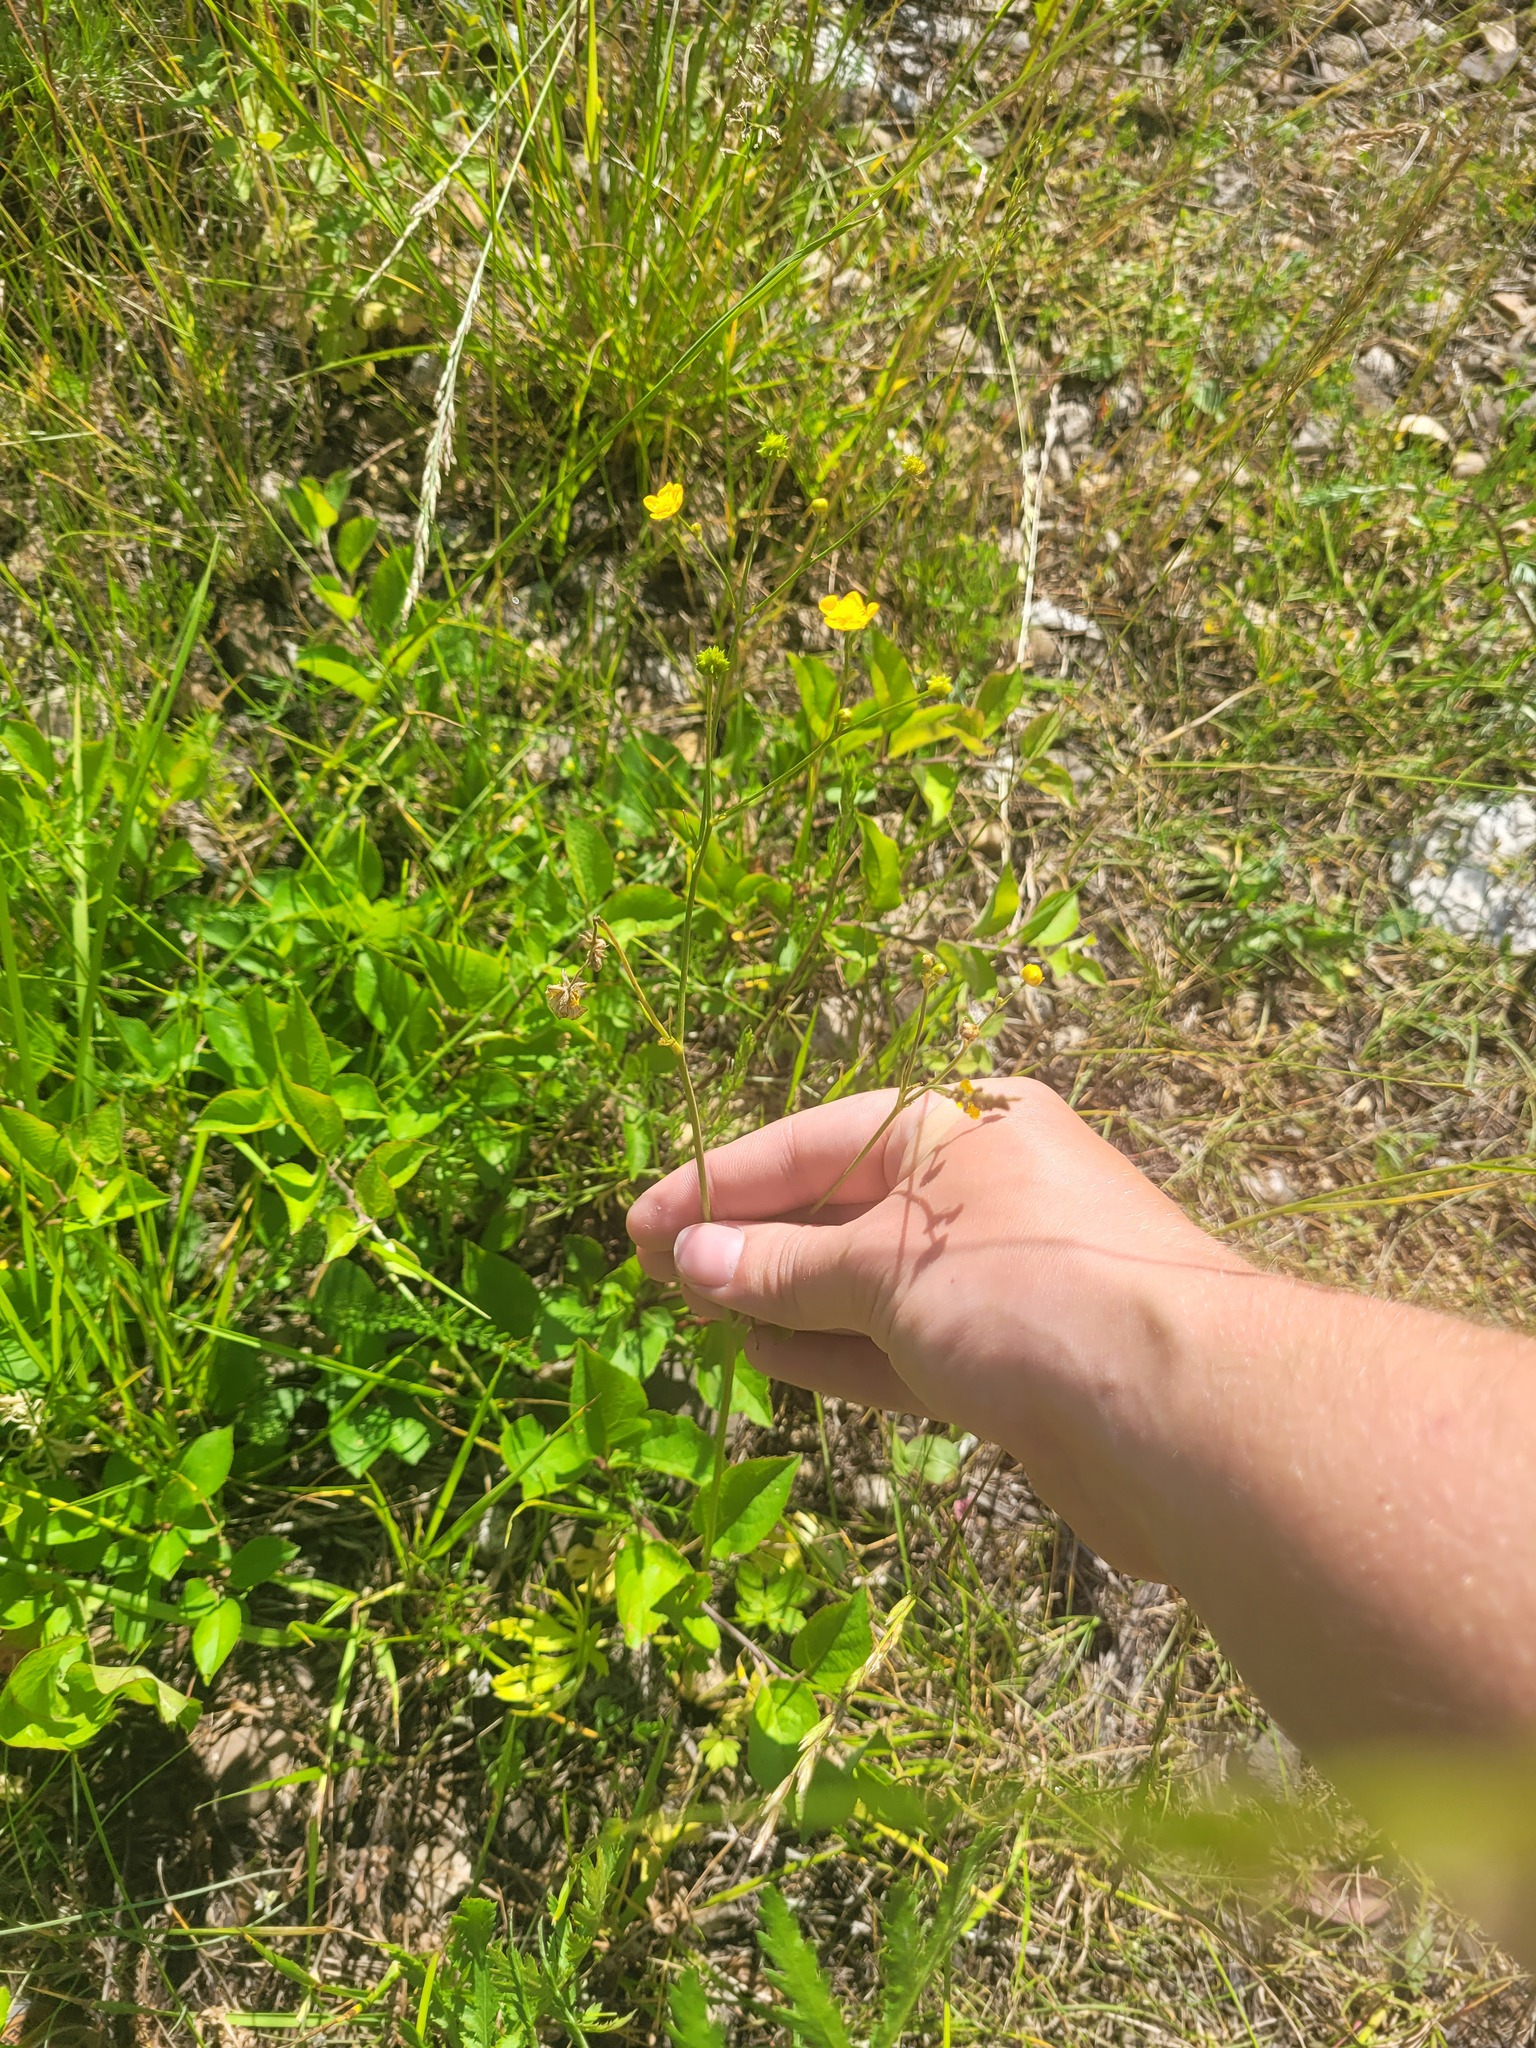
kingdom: Plantae
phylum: Tracheophyta
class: Magnoliopsida
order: Ranunculales
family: Ranunculaceae
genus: Ranunculus
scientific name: Ranunculus acris
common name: Meadow buttercup
